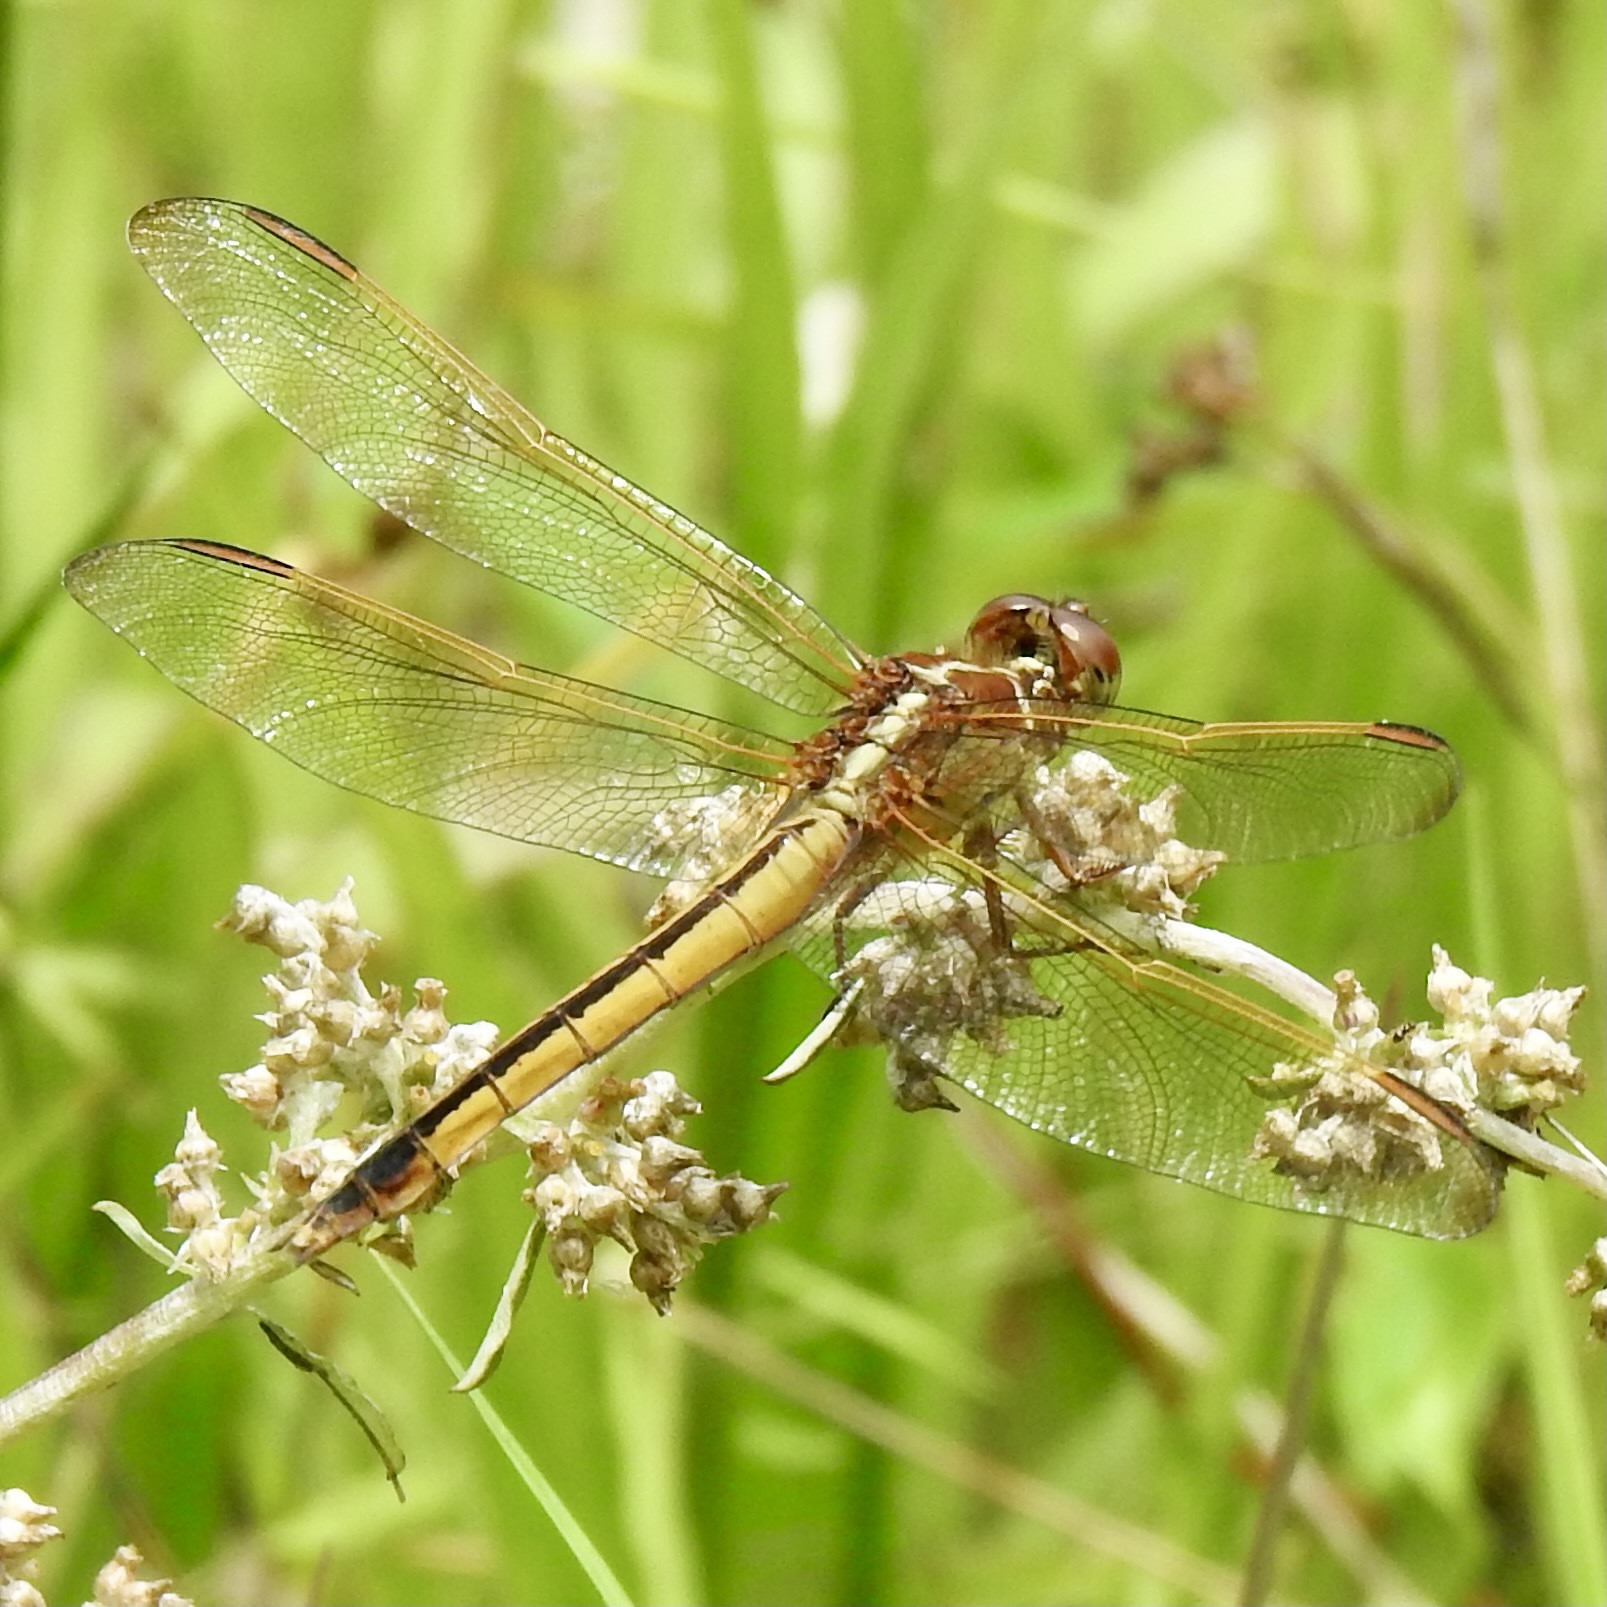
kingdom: Animalia
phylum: Arthropoda
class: Insecta
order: Odonata
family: Libellulidae
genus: Libellula
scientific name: Libellula needhami
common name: Needham's skimmer
